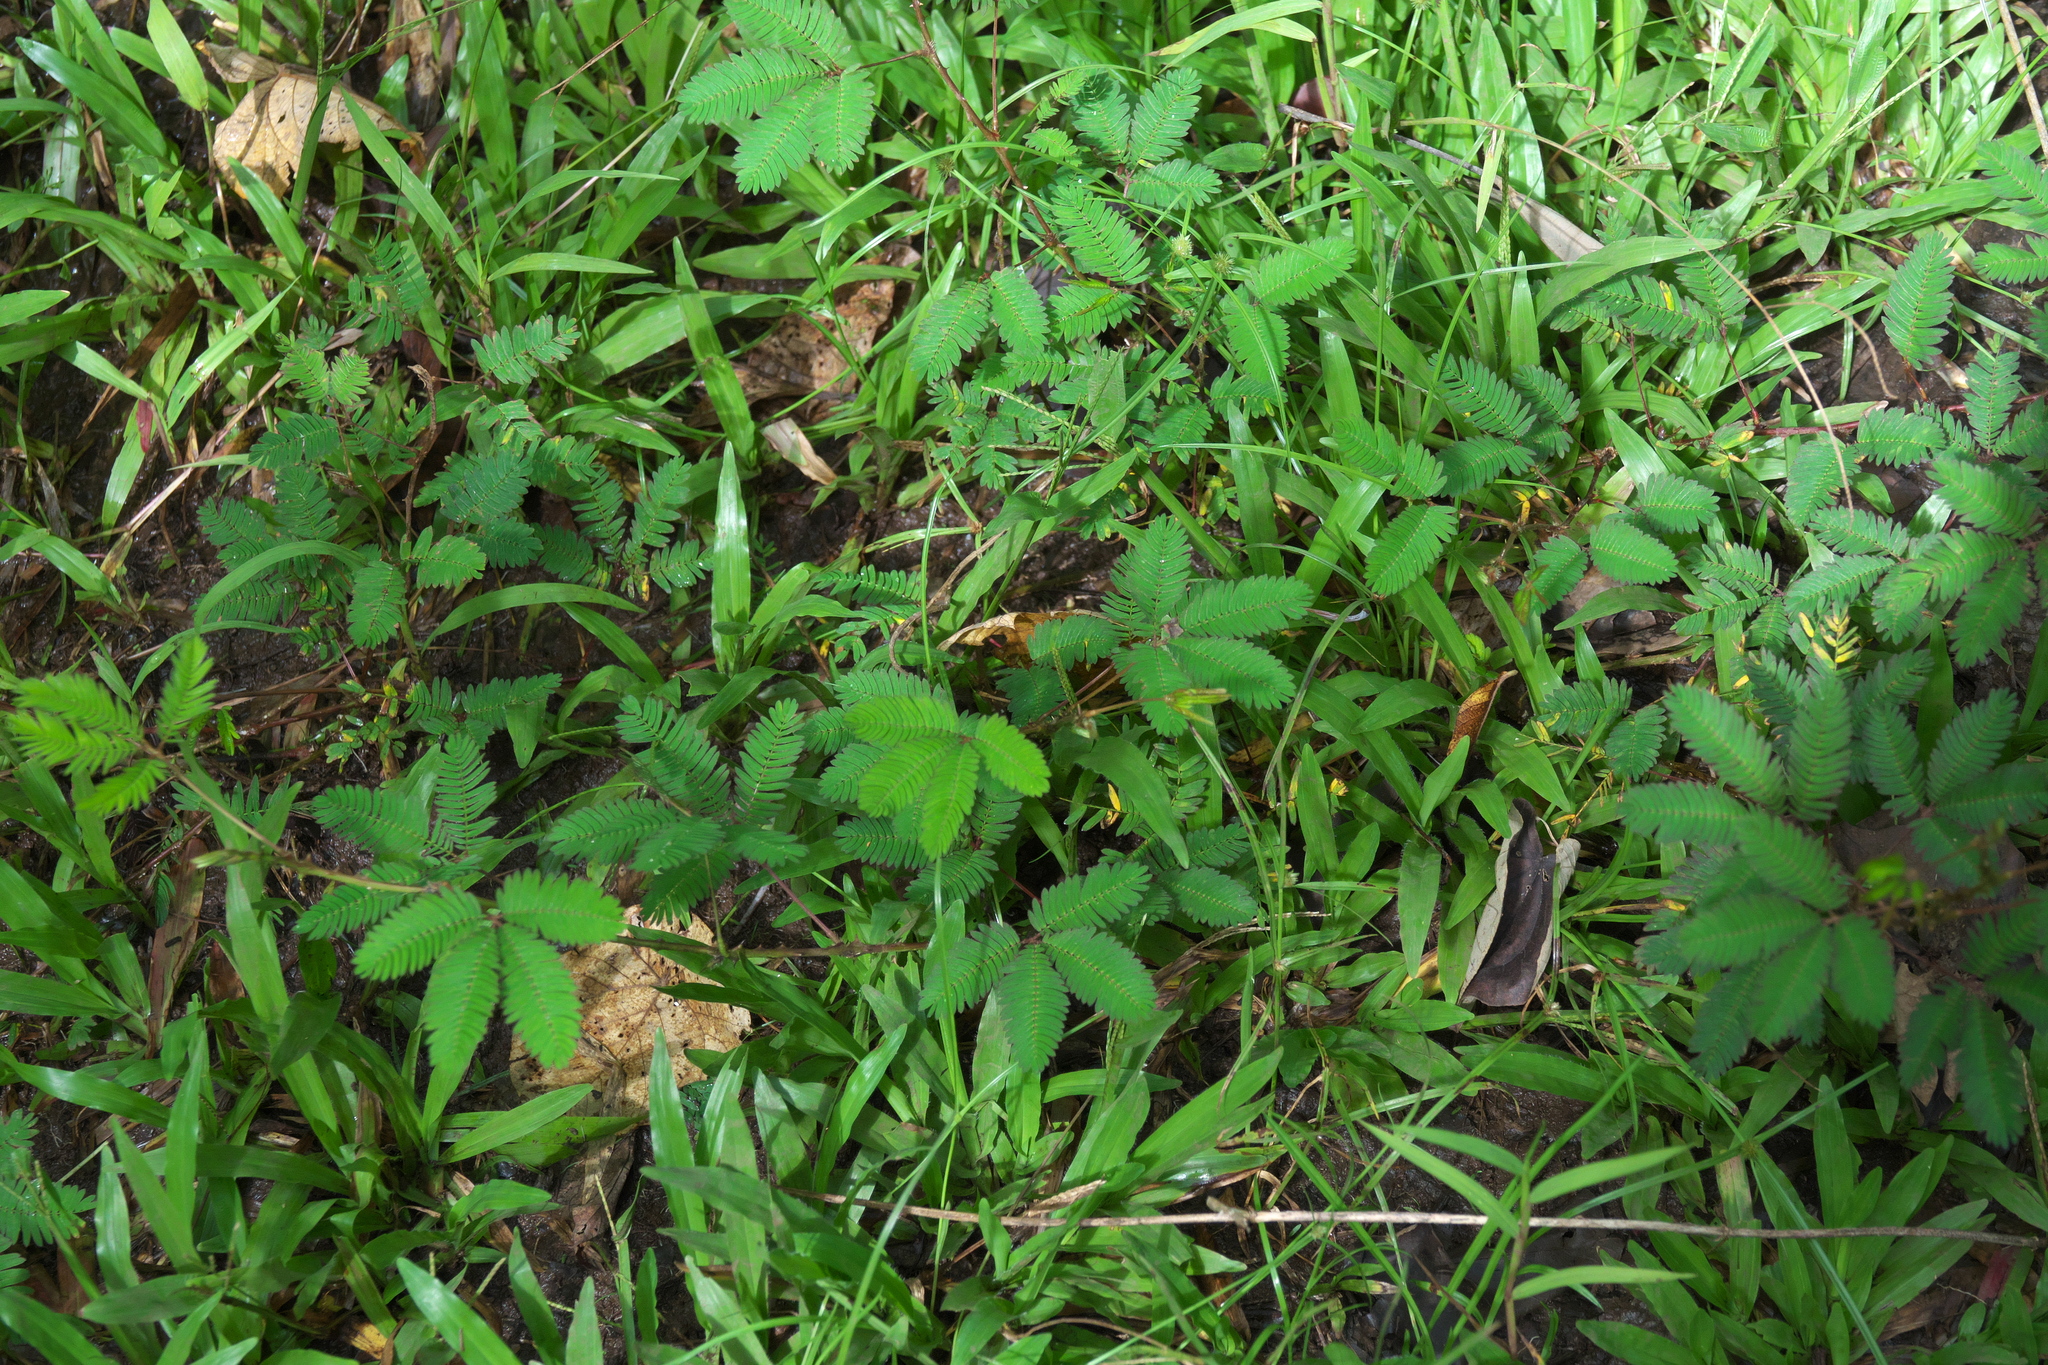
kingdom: Plantae
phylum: Tracheophyta
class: Magnoliopsida
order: Fabales
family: Fabaceae
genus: Mimosa
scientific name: Mimosa pudica
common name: Sensitive plant
